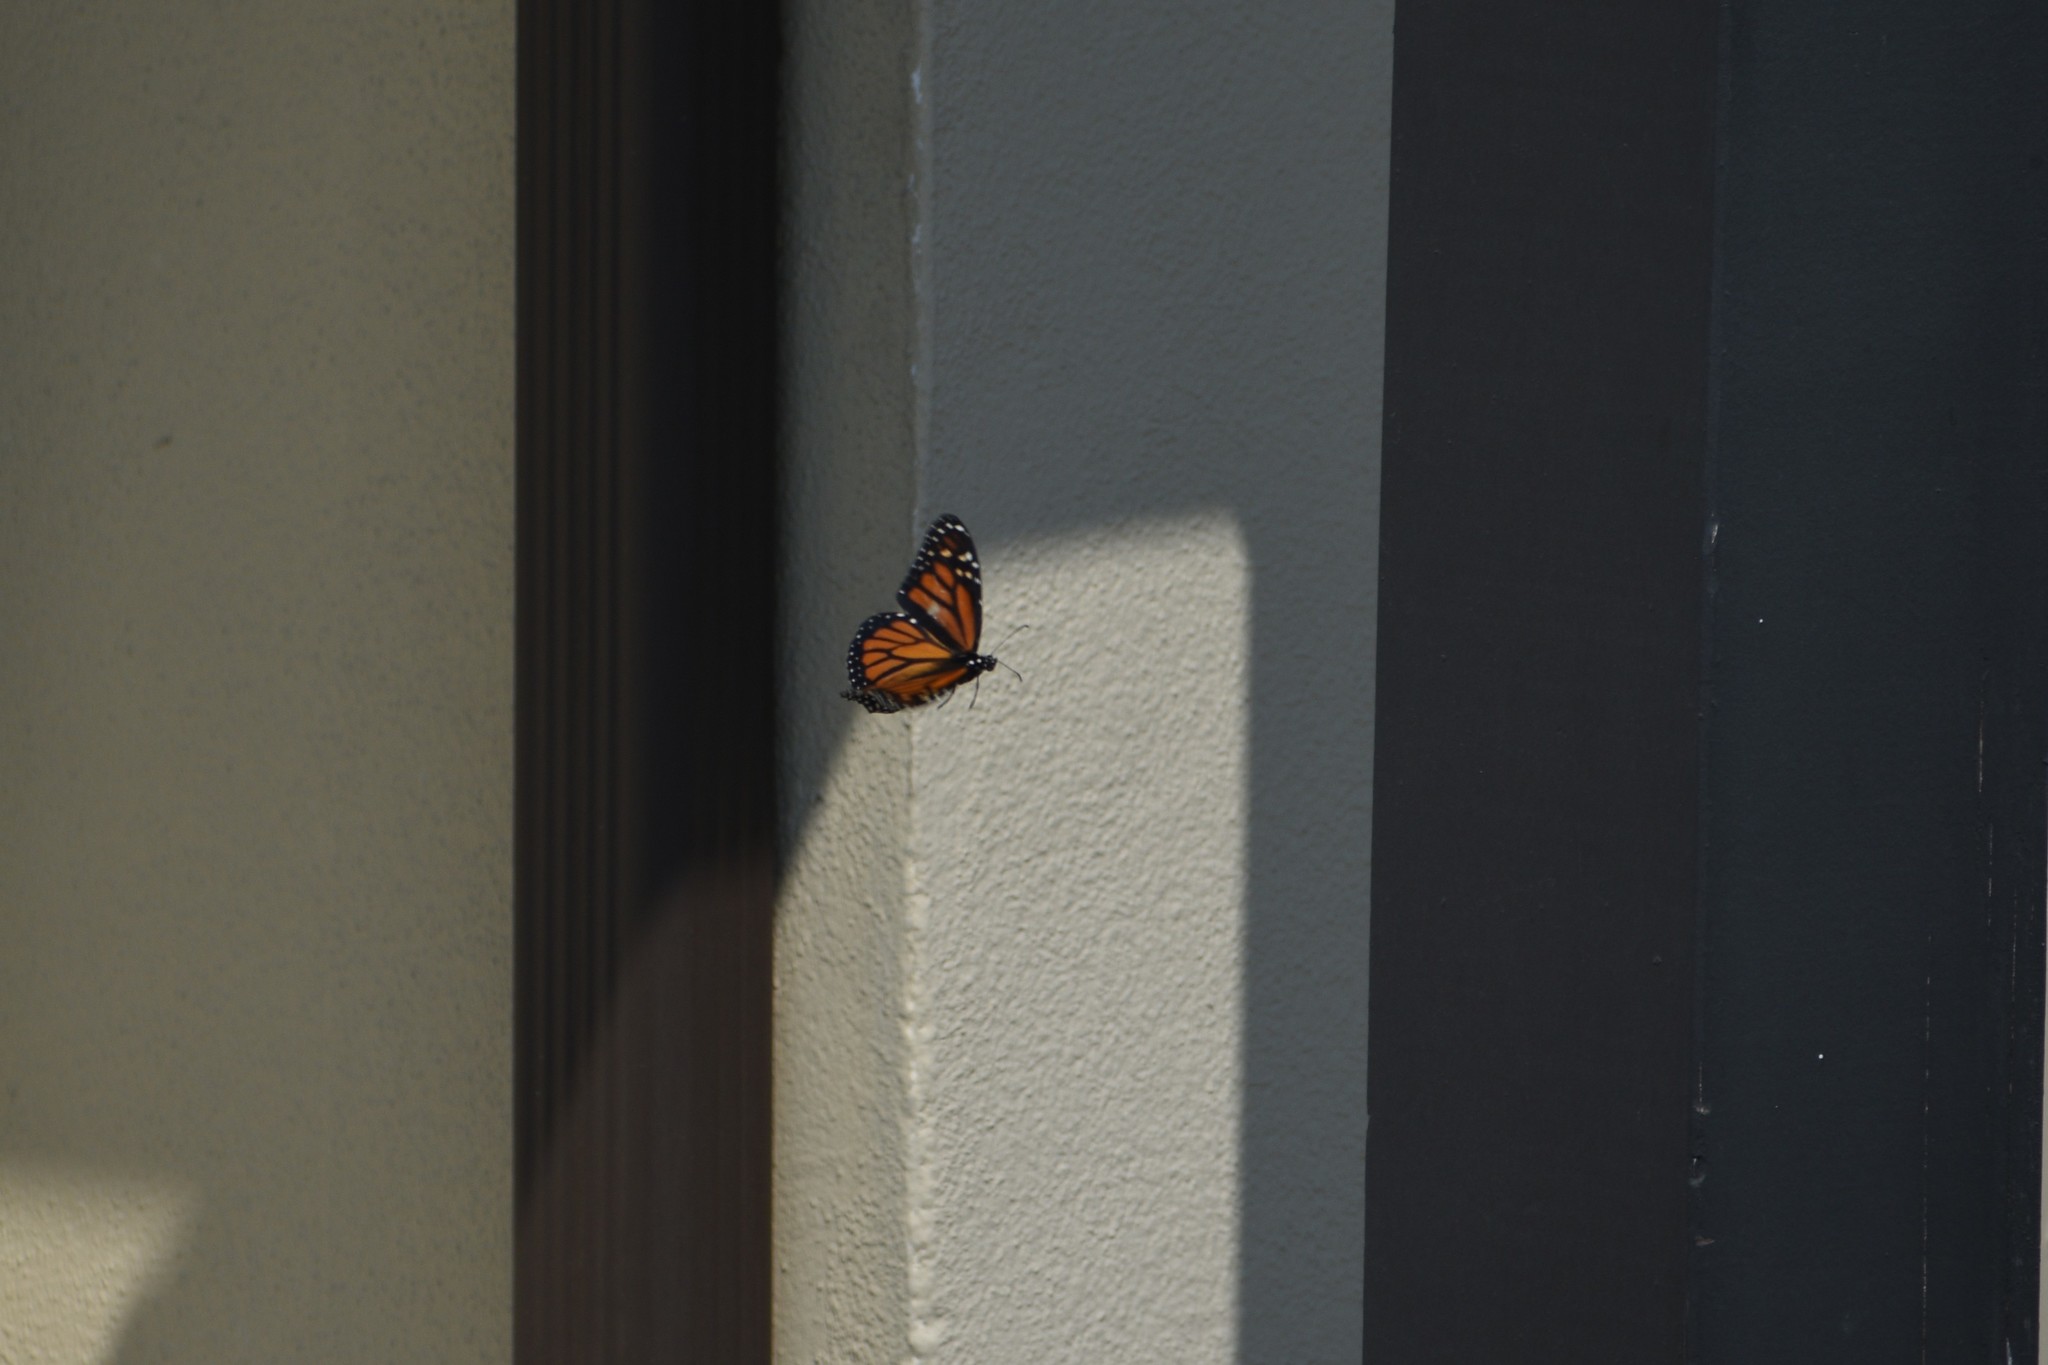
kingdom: Animalia
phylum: Arthropoda
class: Insecta
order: Lepidoptera
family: Nymphalidae
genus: Danaus
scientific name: Danaus plexippus
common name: Monarch
